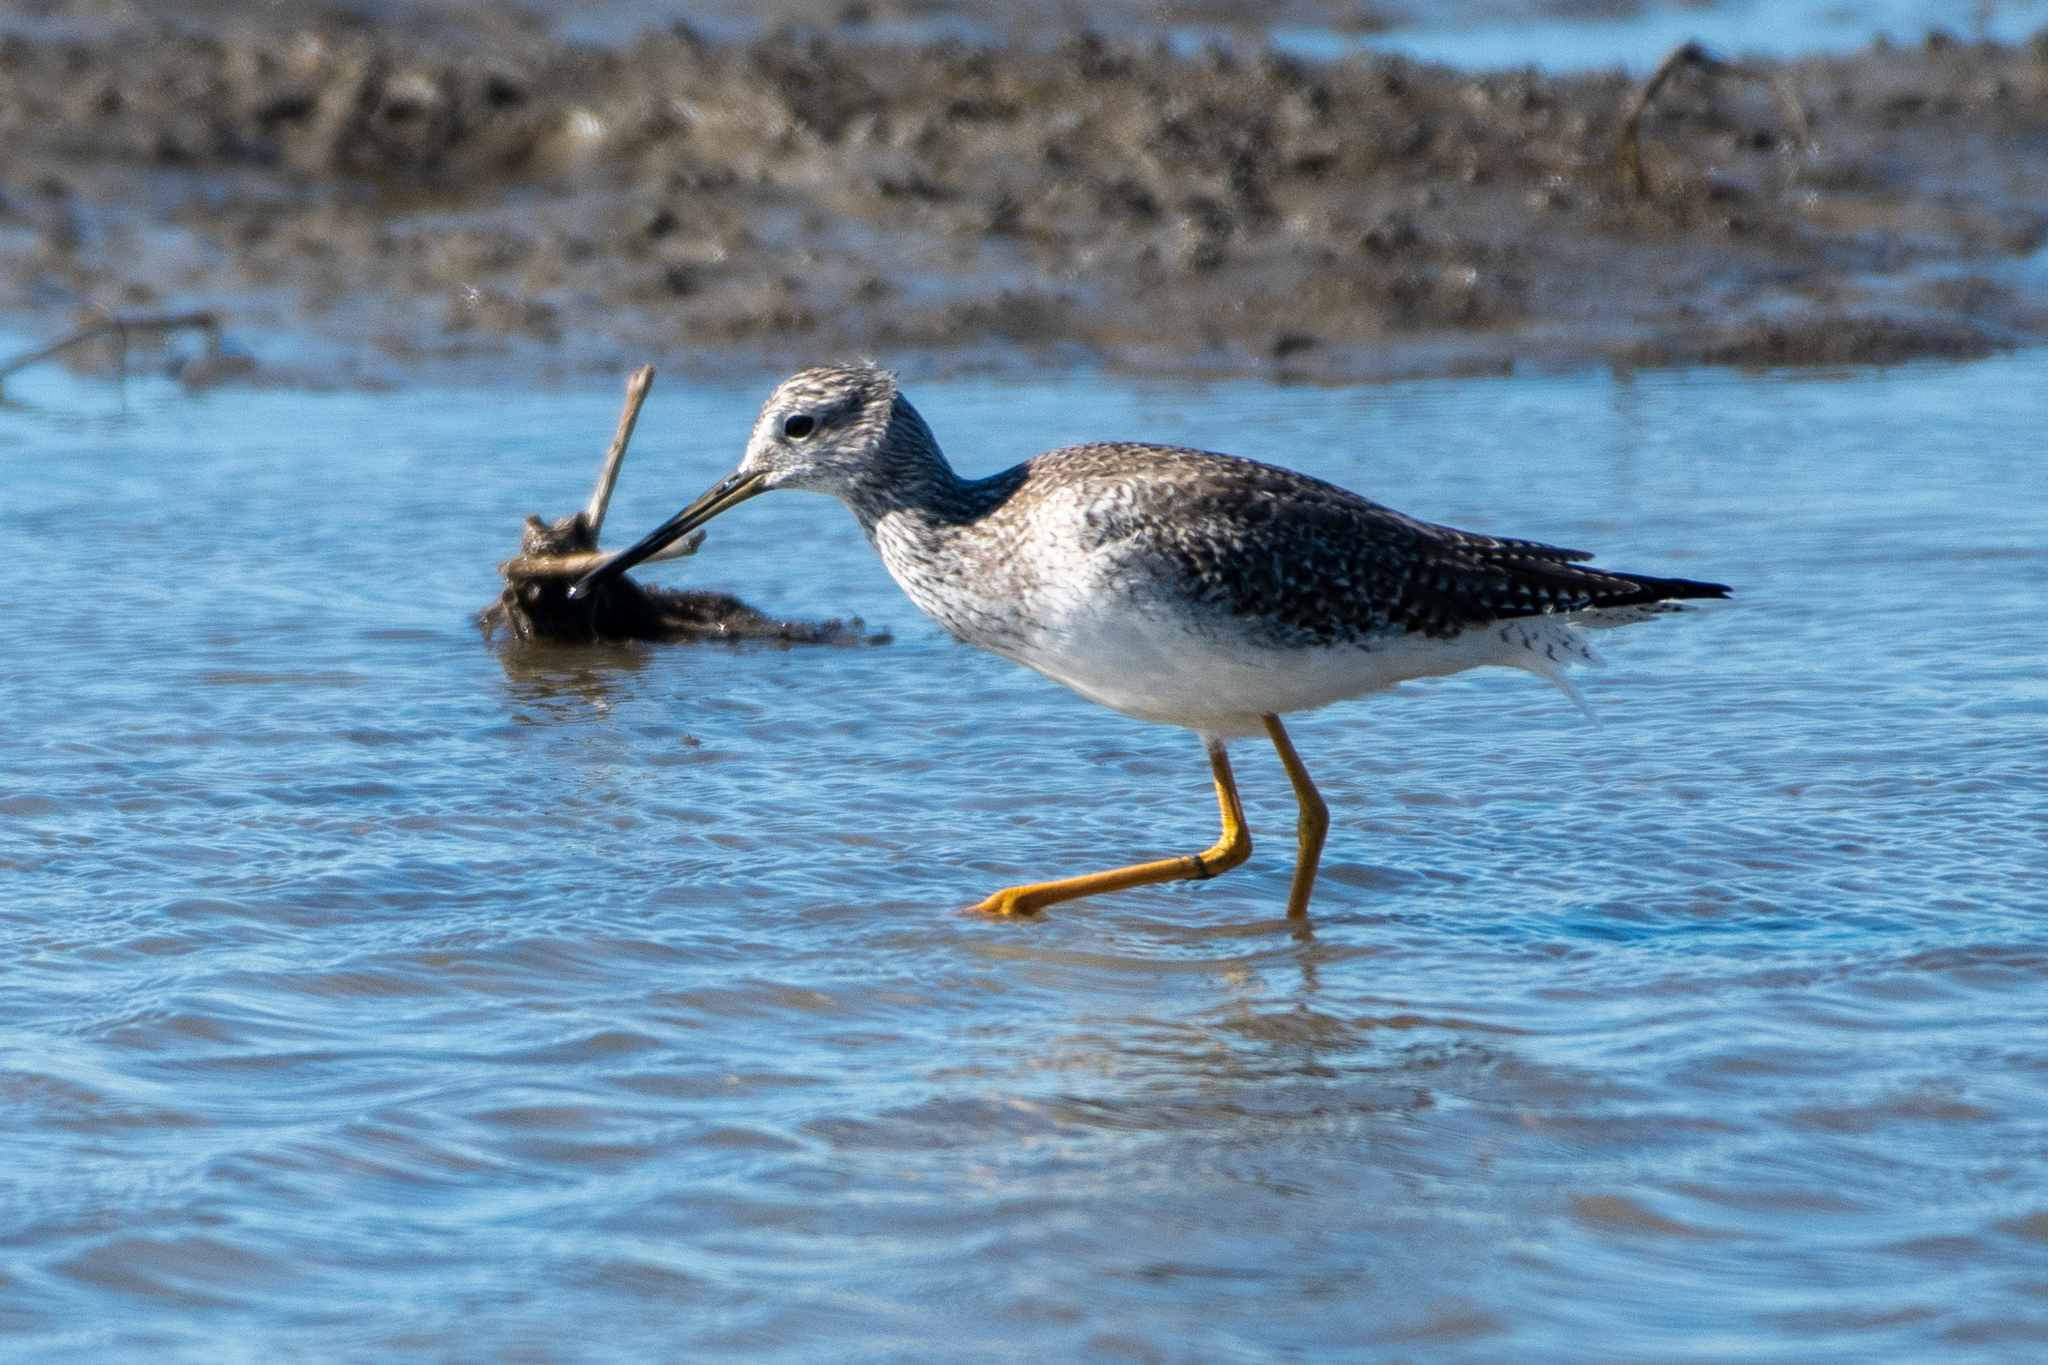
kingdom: Animalia
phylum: Chordata
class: Aves
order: Charadriiformes
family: Scolopacidae
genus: Tringa
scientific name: Tringa melanoleuca
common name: Greater yellowlegs
